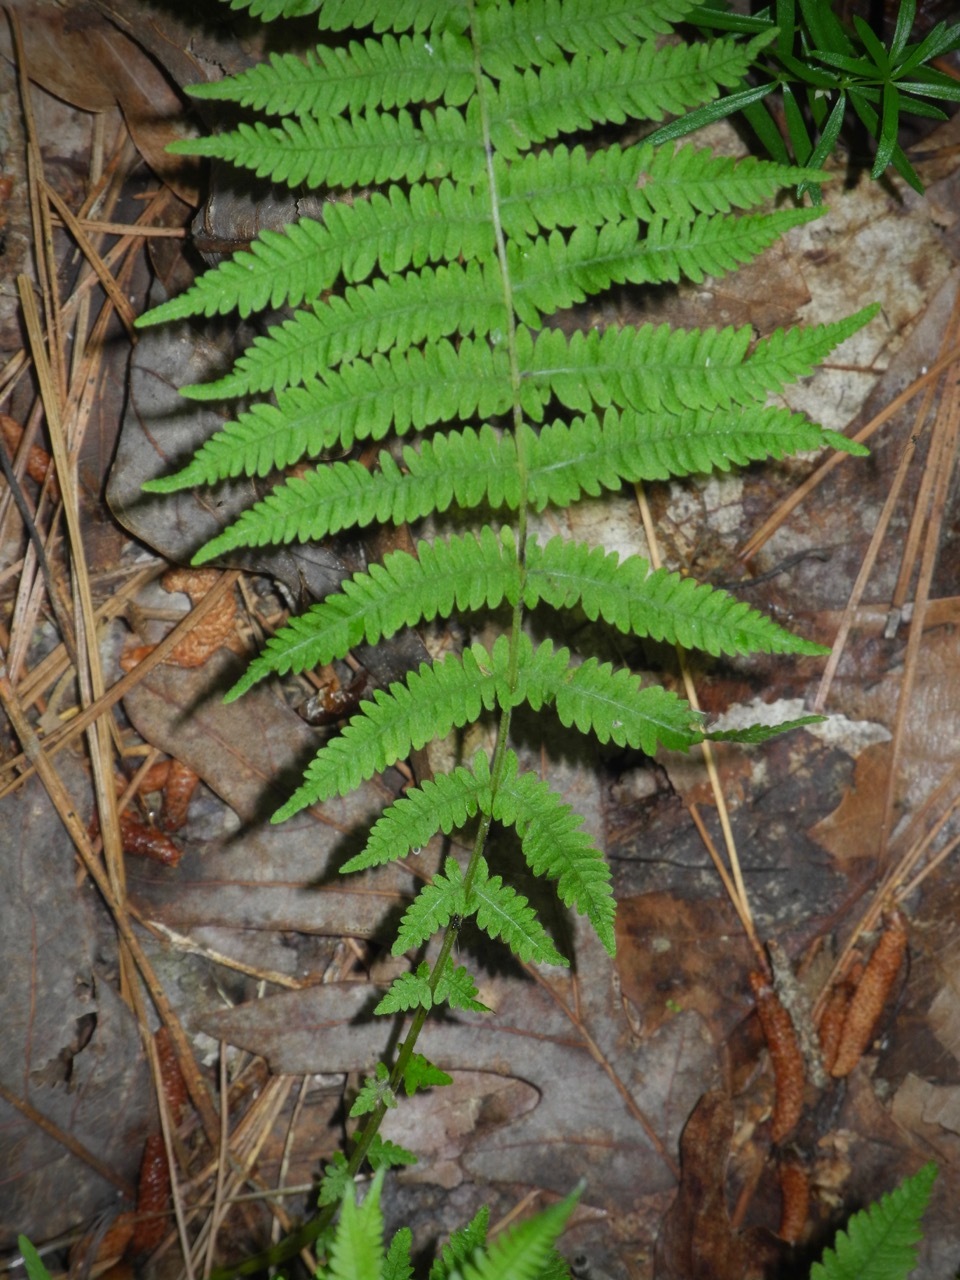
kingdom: Plantae
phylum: Tracheophyta
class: Polypodiopsida
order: Polypodiales
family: Thelypteridaceae
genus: Amauropelta
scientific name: Amauropelta noveboracensis
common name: New york fern
